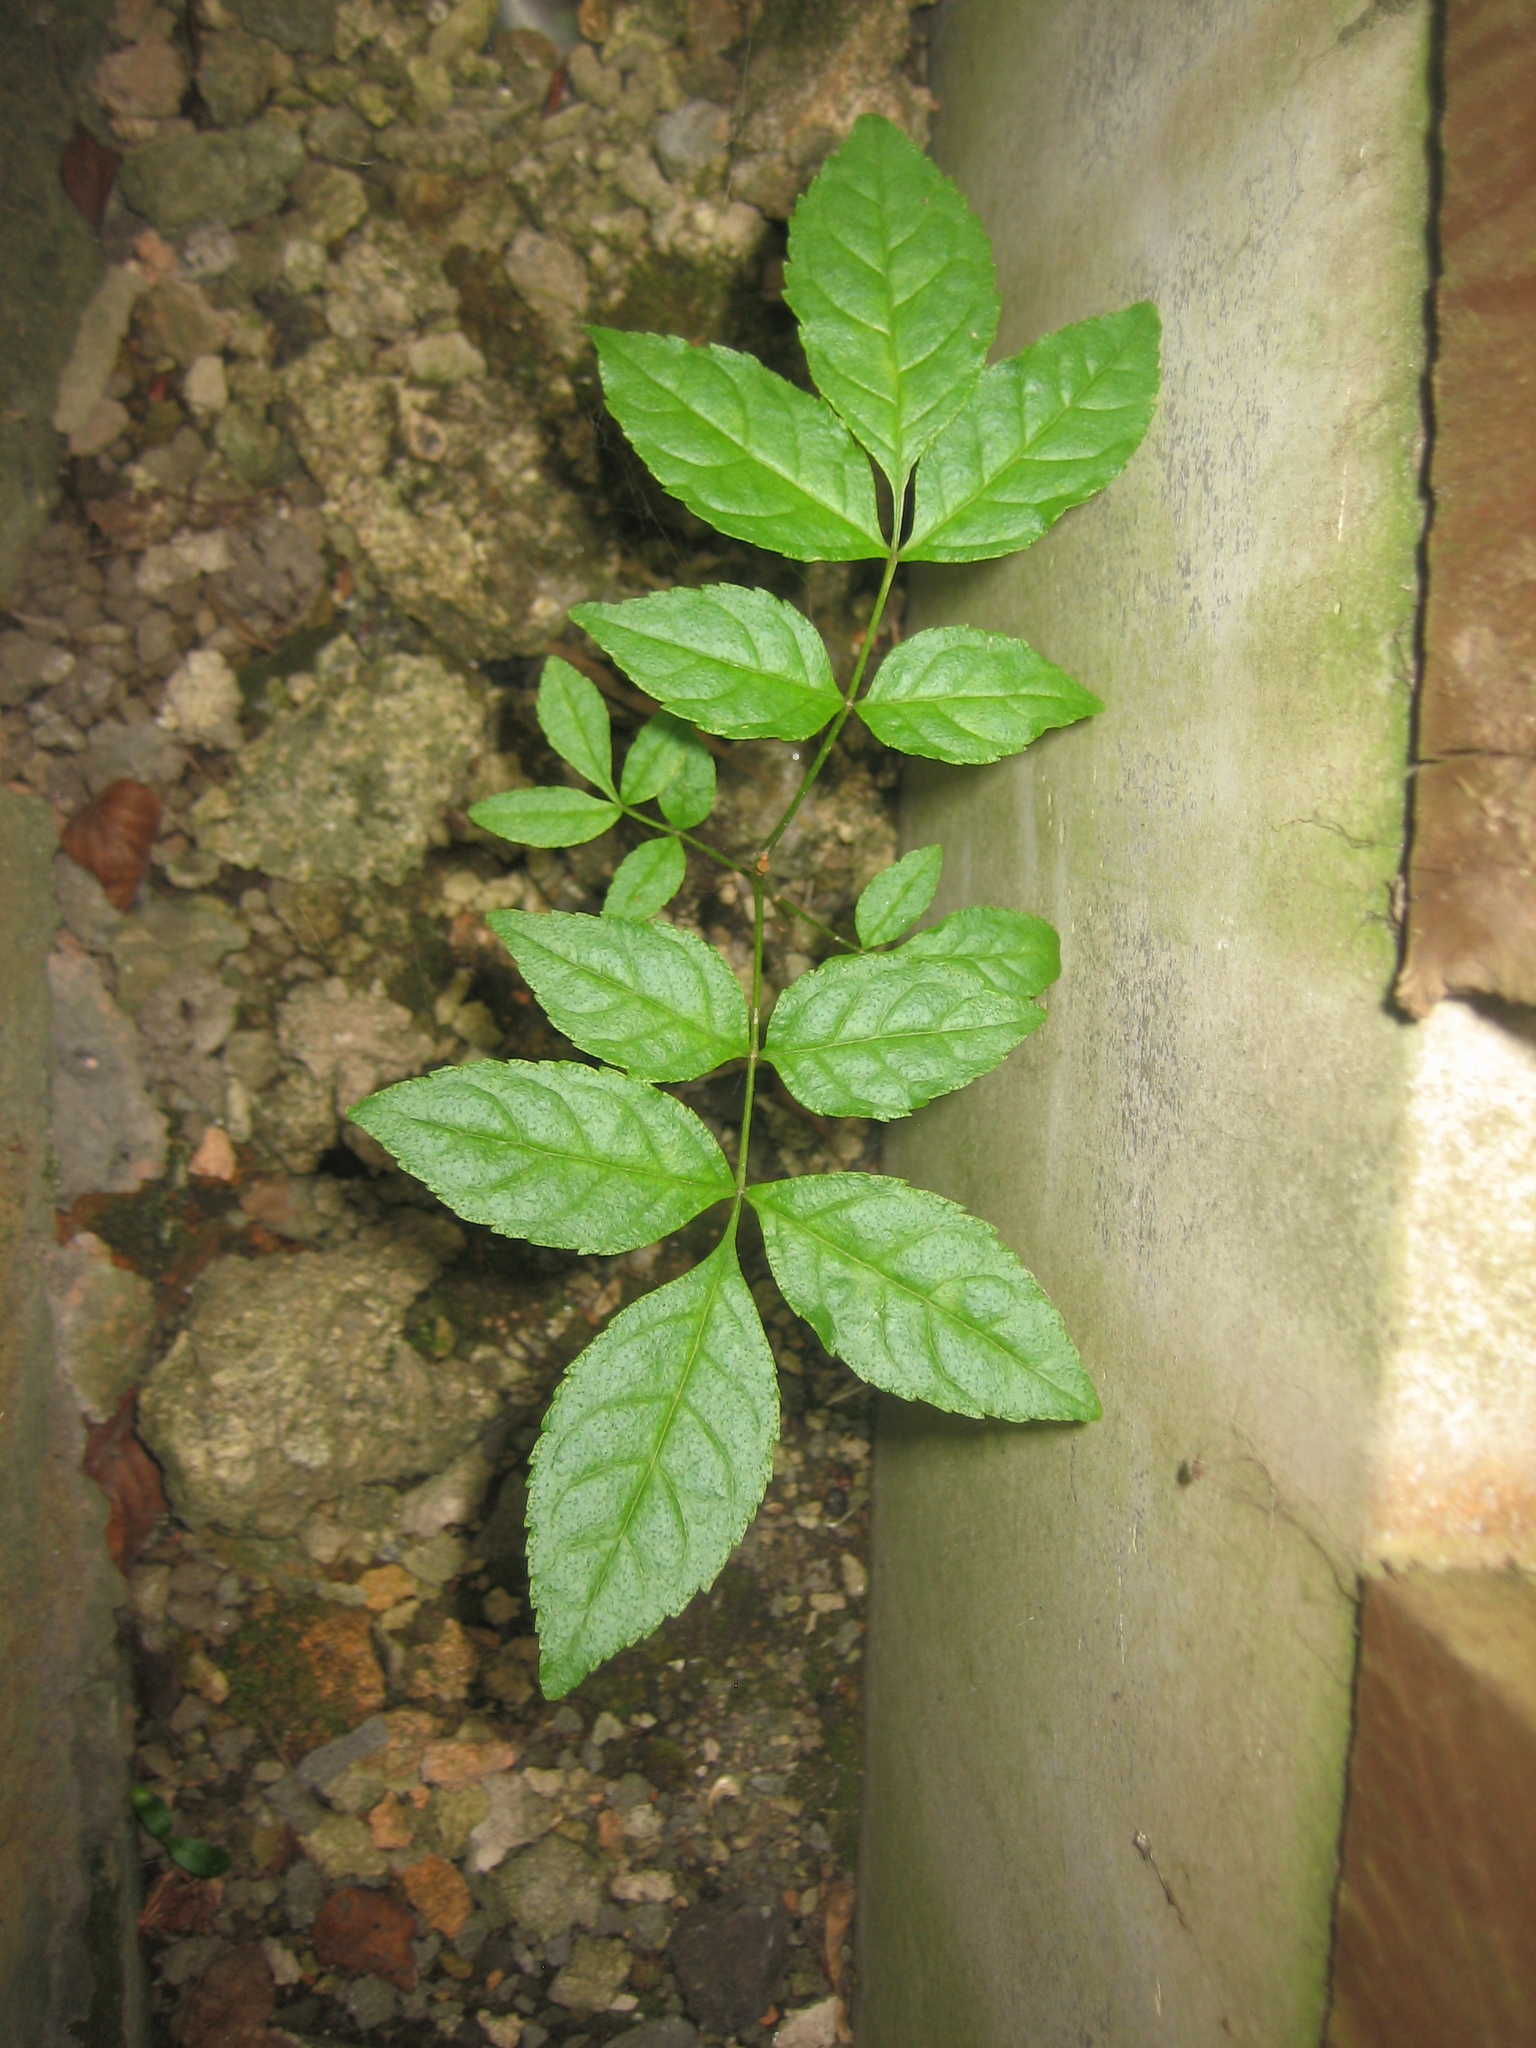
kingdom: Plantae
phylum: Tracheophyta
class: Magnoliopsida
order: Lamiales
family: Oleaceae
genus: Fraxinus
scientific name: Fraxinus excelsior
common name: European ash
